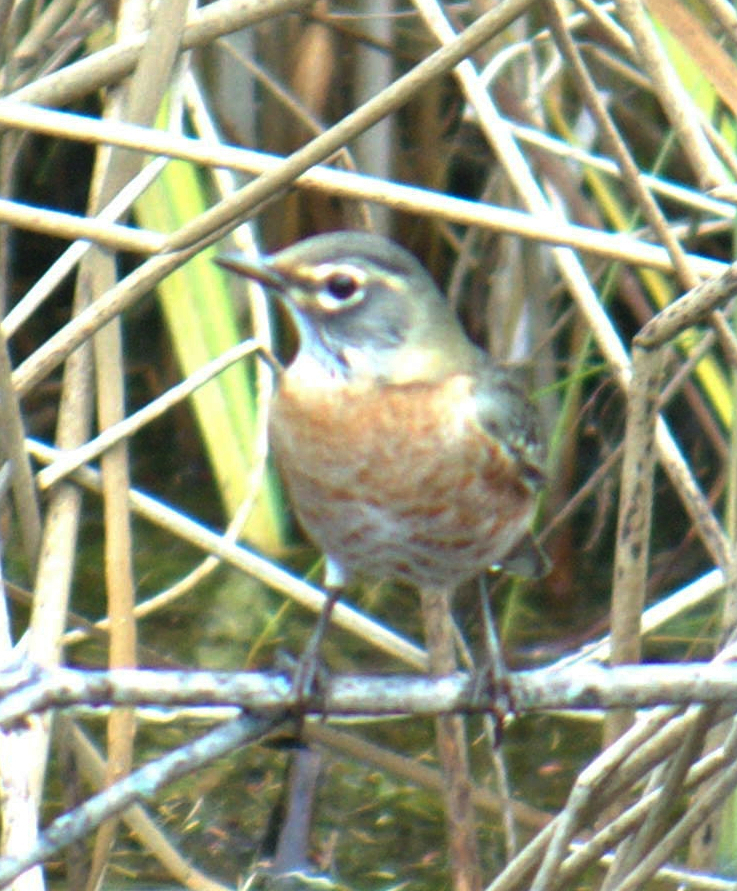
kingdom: Animalia
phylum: Chordata
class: Aves
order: Passeriformes
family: Turdidae
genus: Turdus
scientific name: Turdus migratorius
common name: American robin
